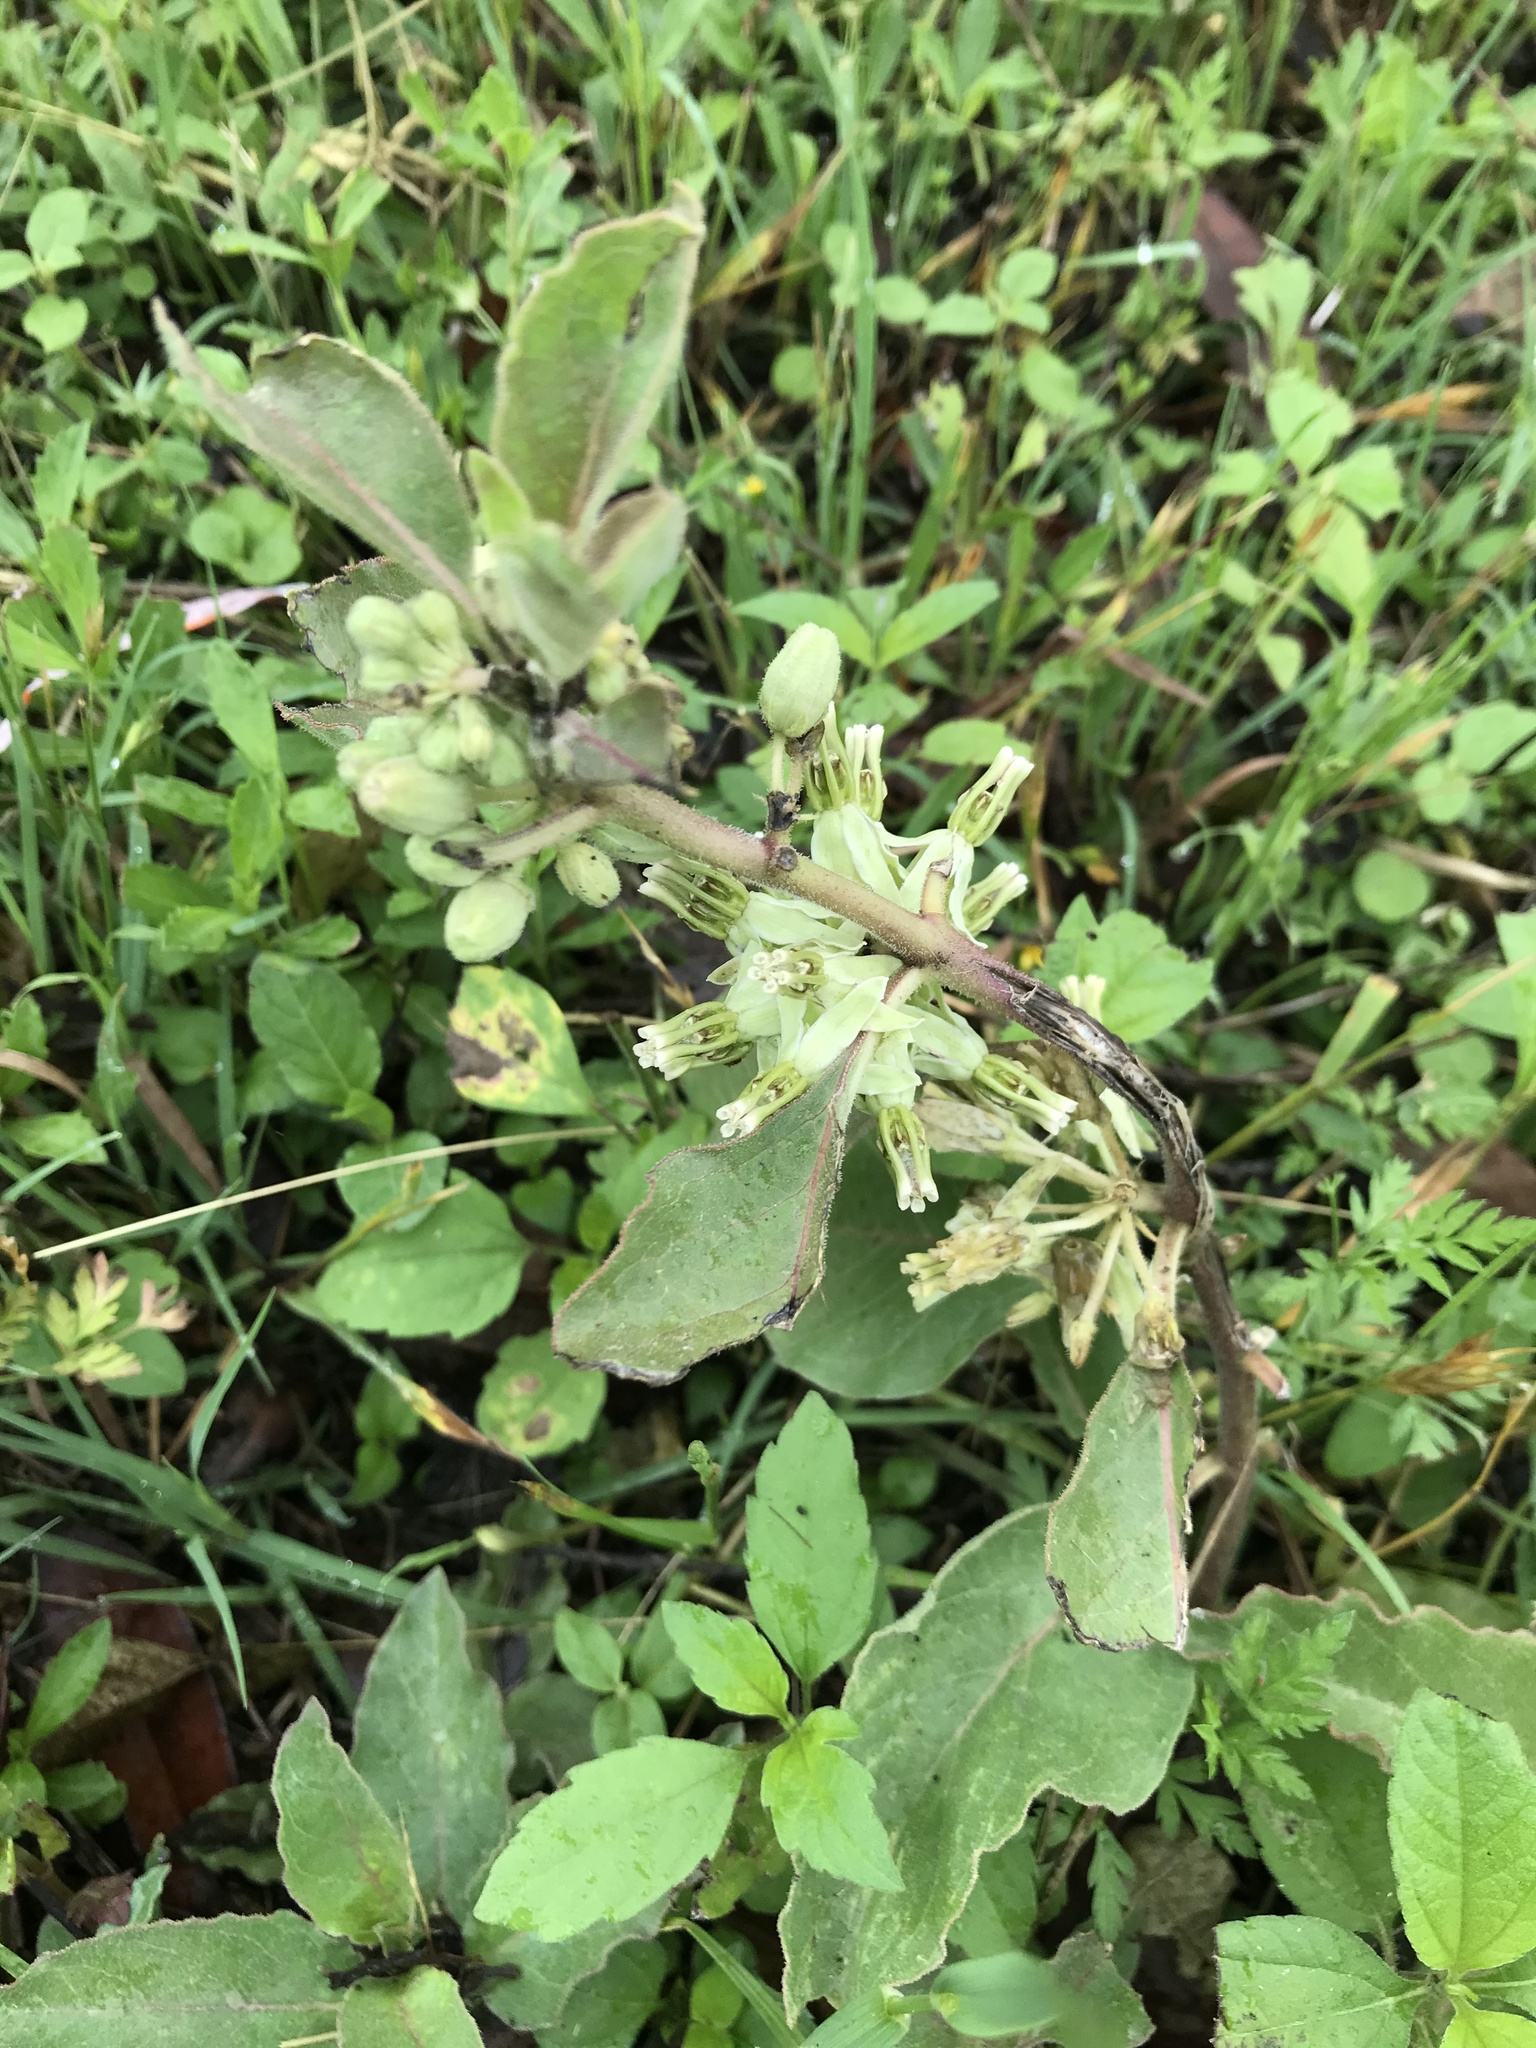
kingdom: Plantae
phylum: Tracheophyta
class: Magnoliopsida
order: Gentianales
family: Apocynaceae
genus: Asclepias
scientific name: Asclepias oenotheroides
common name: Zizotes milkweed
